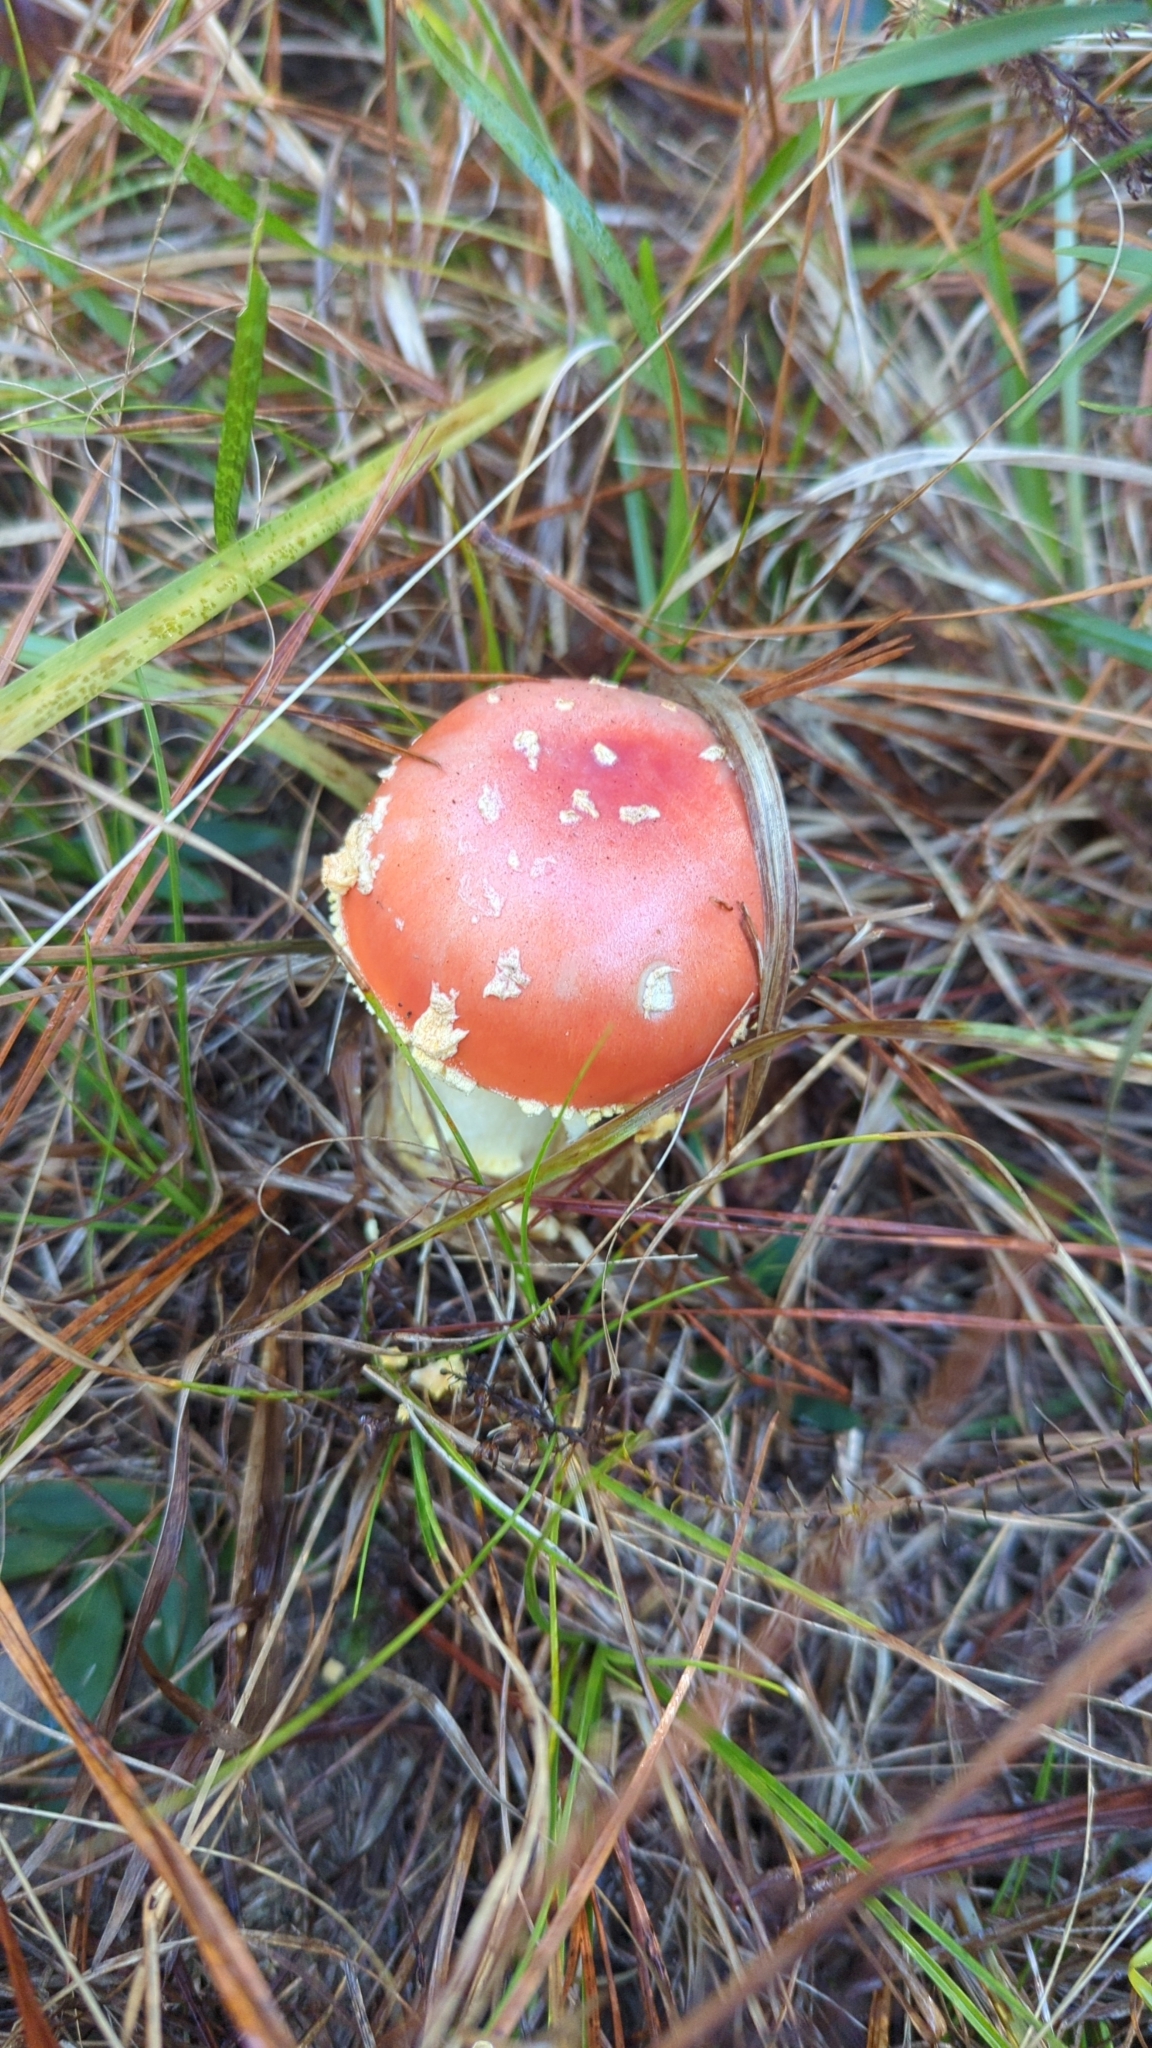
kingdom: Fungi
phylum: Basidiomycota
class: Agaricomycetes
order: Agaricales
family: Amanitaceae
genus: Amanita
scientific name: Amanita persicina
